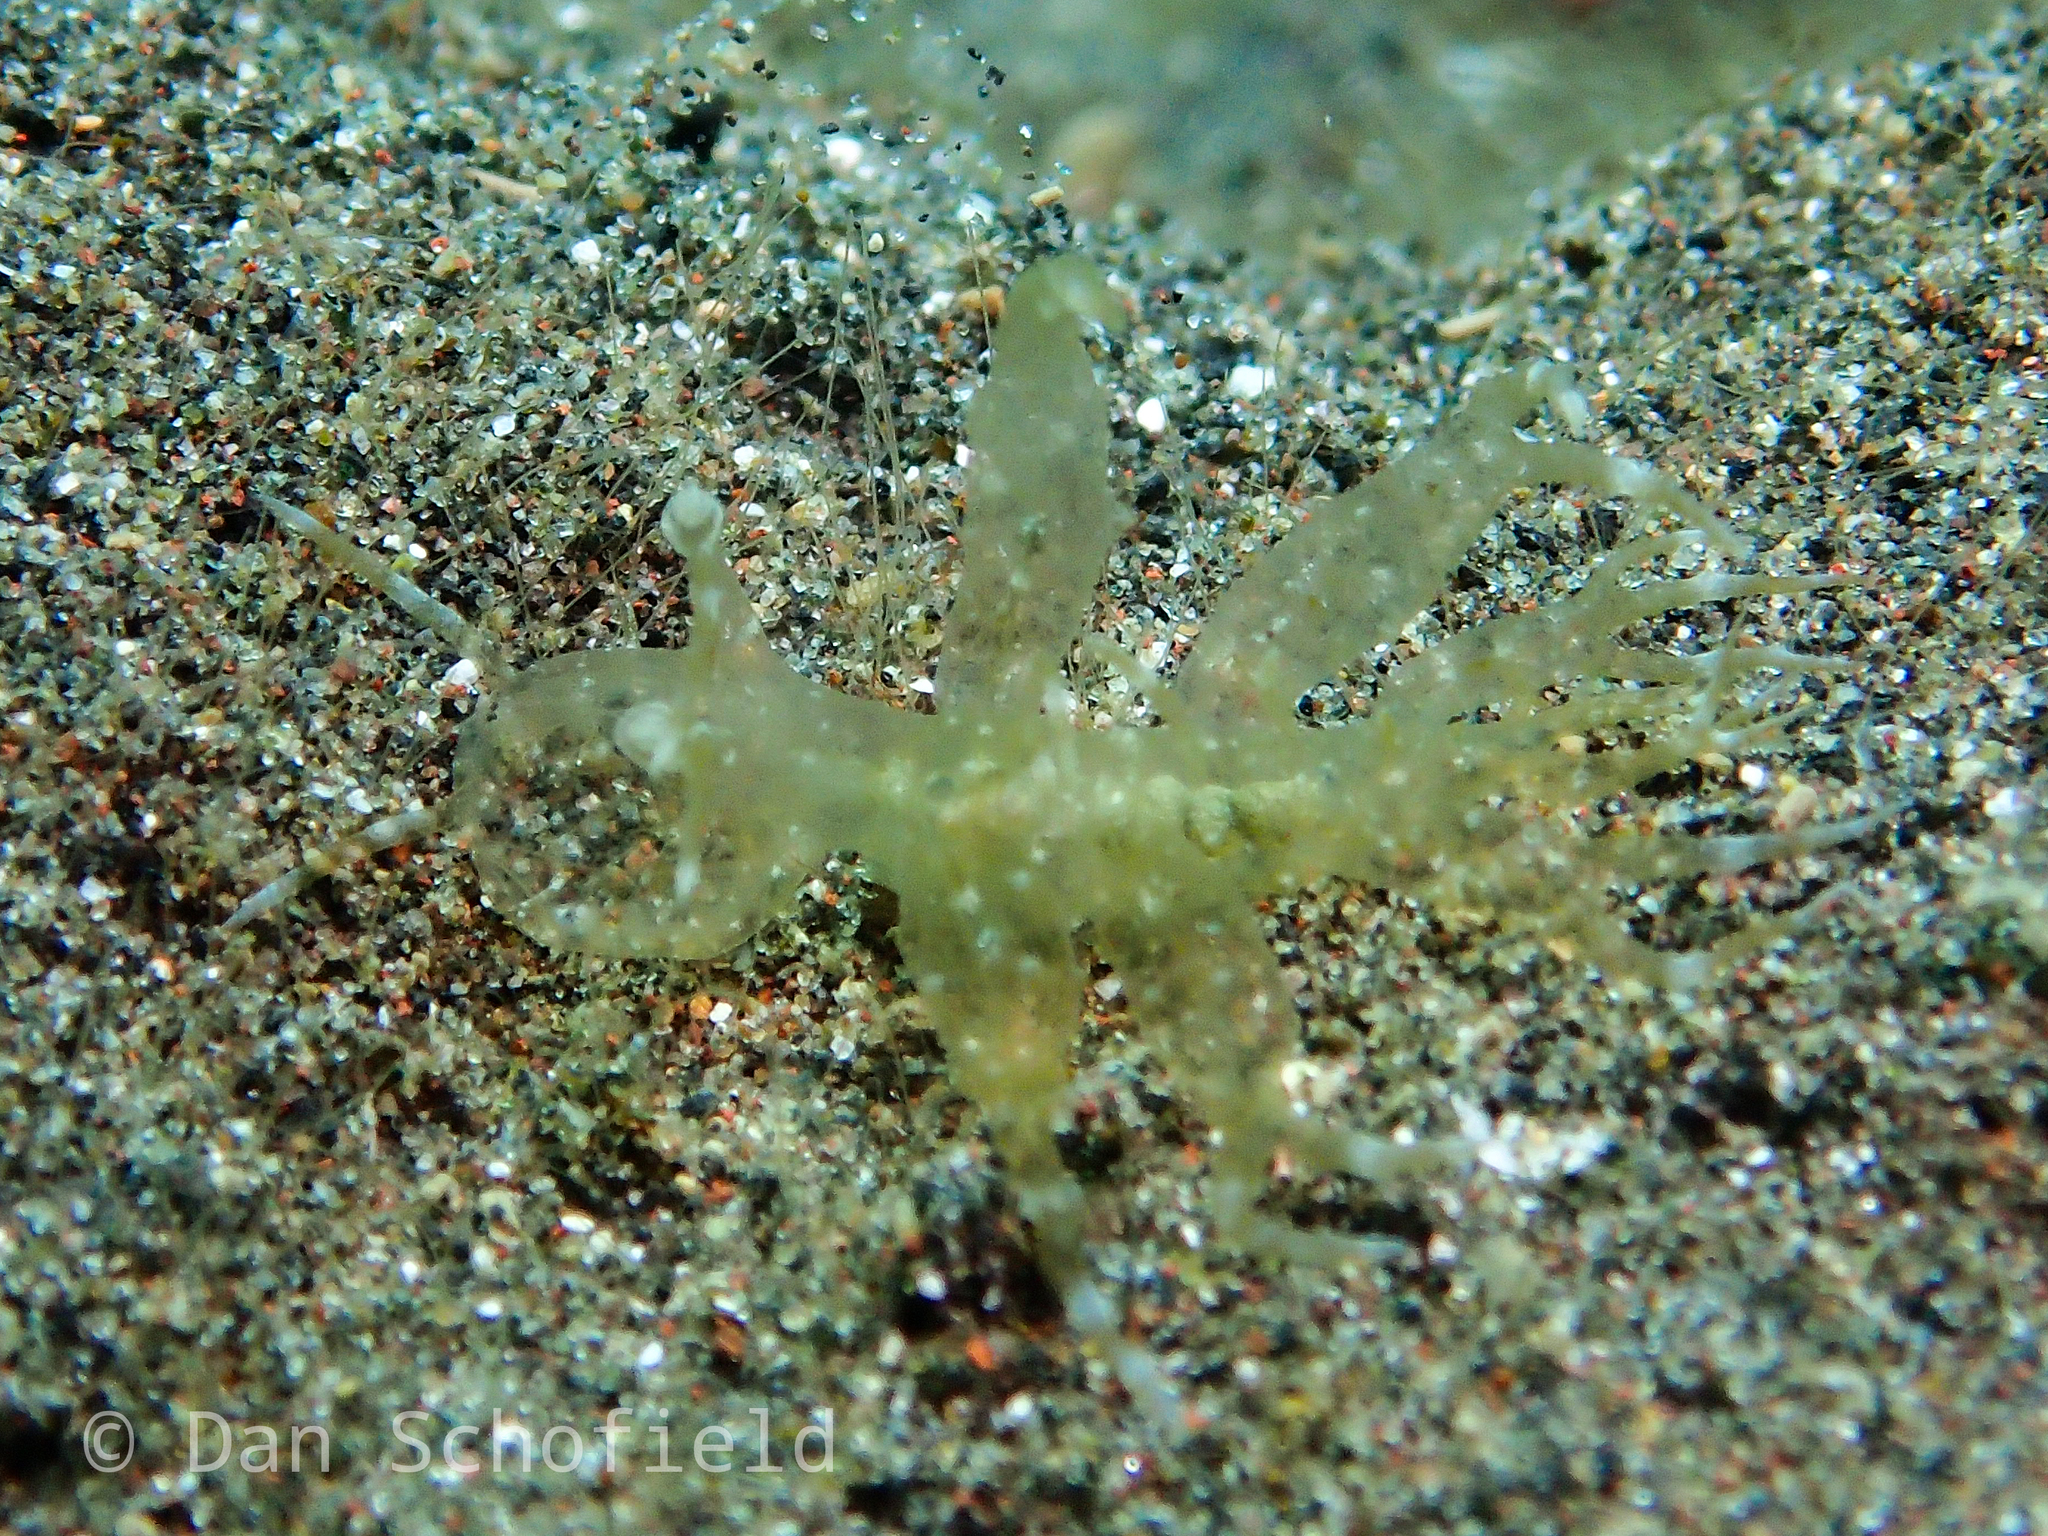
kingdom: Animalia
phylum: Mollusca
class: Gastropoda
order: Nudibranchia
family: Tethydidae
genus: Melibe
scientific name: Melibe megaceras
